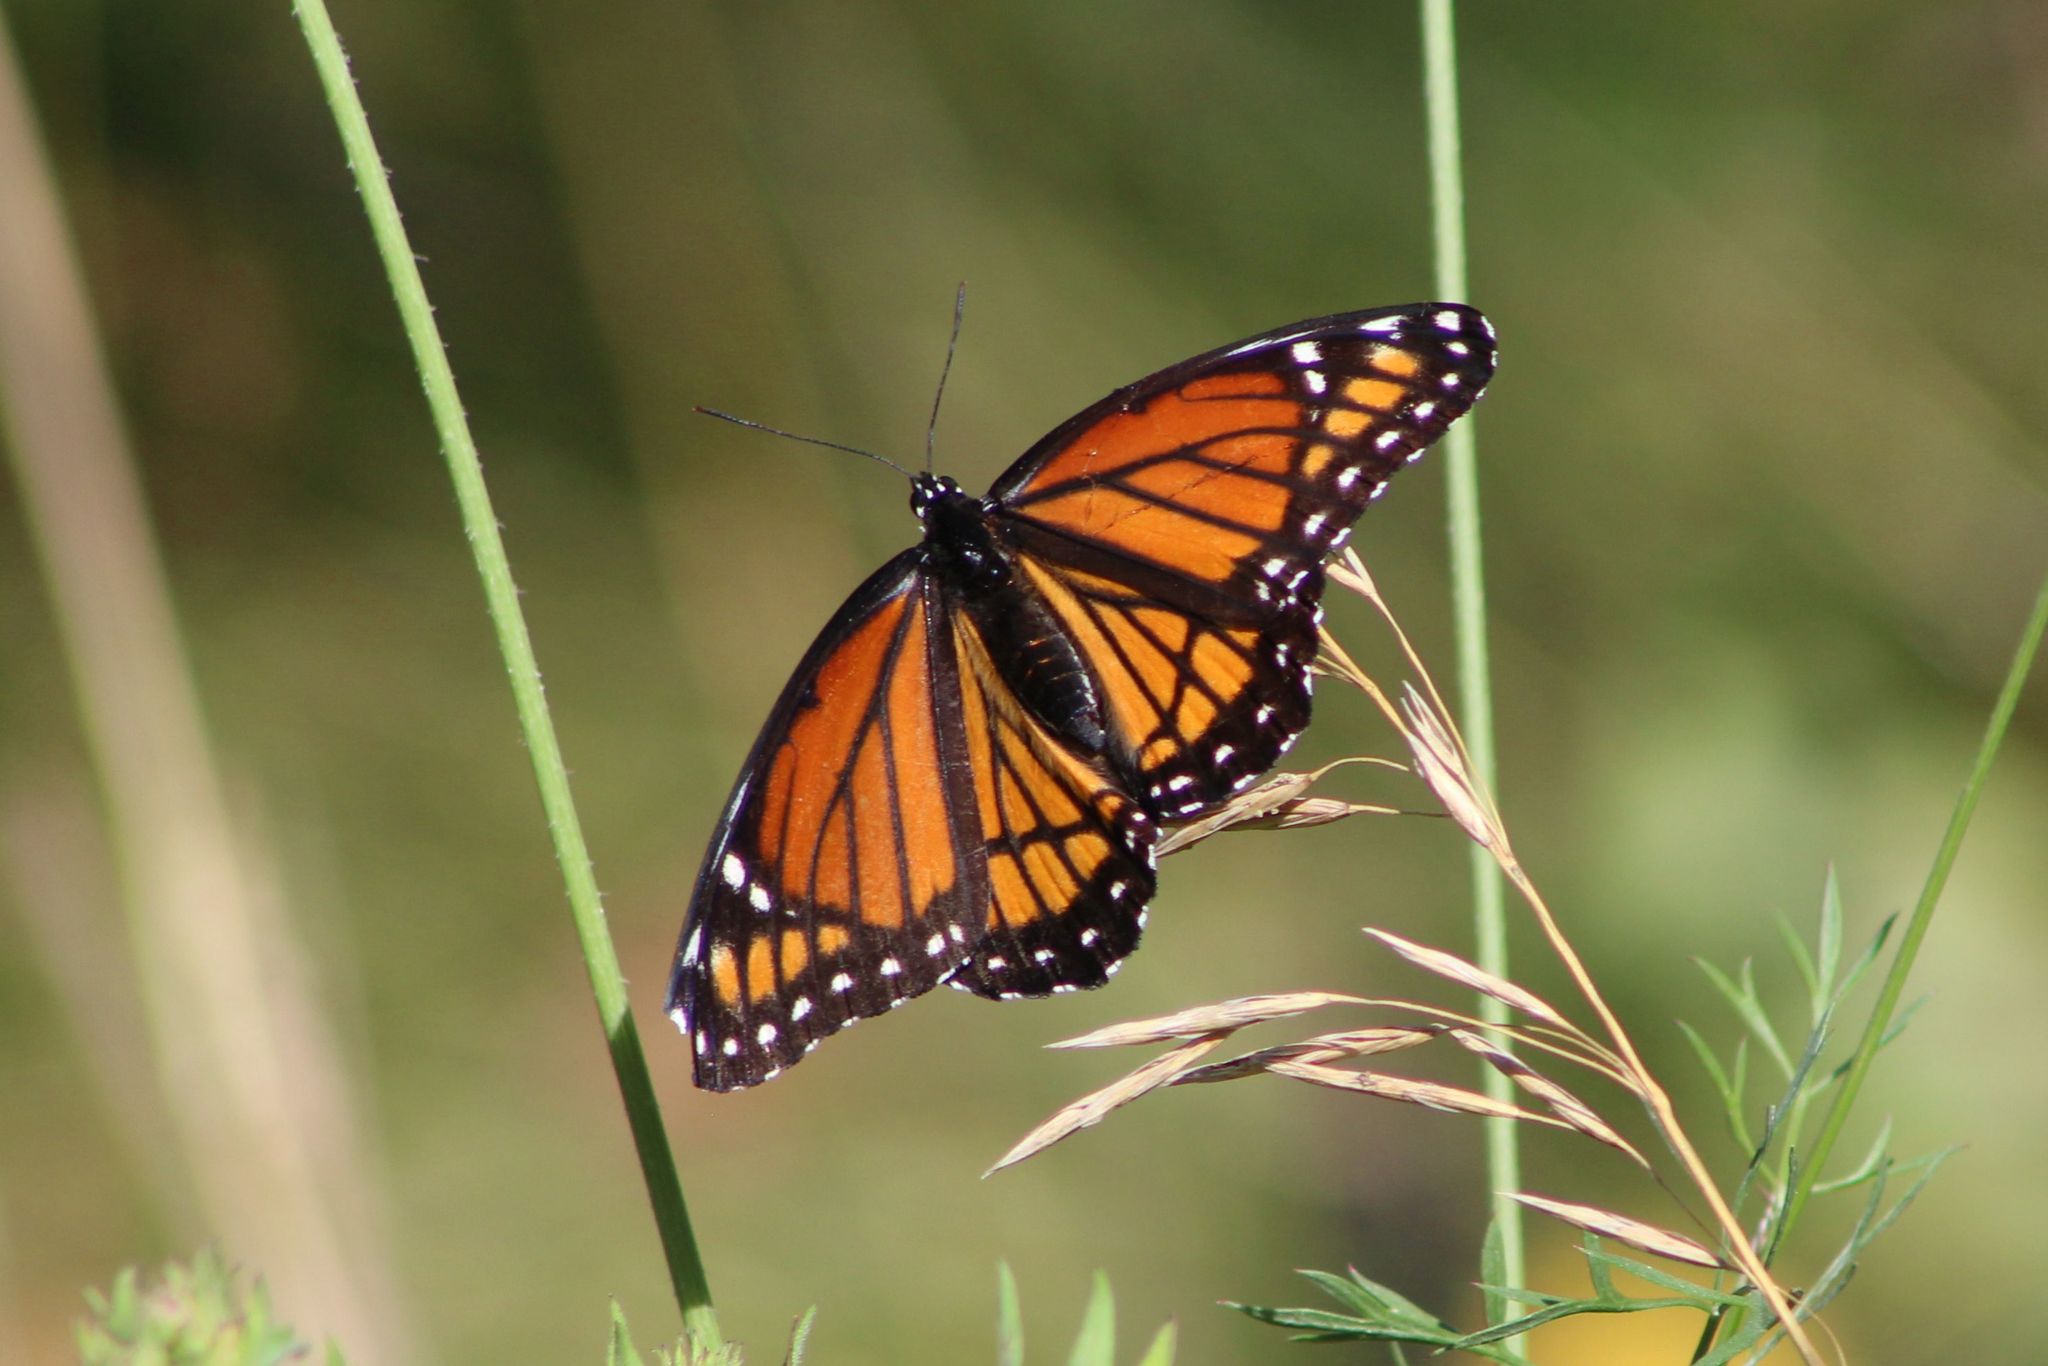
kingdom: Animalia
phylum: Arthropoda
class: Insecta
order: Lepidoptera
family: Nymphalidae
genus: Limenitis
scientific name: Limenitis archippus
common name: Viceroy
